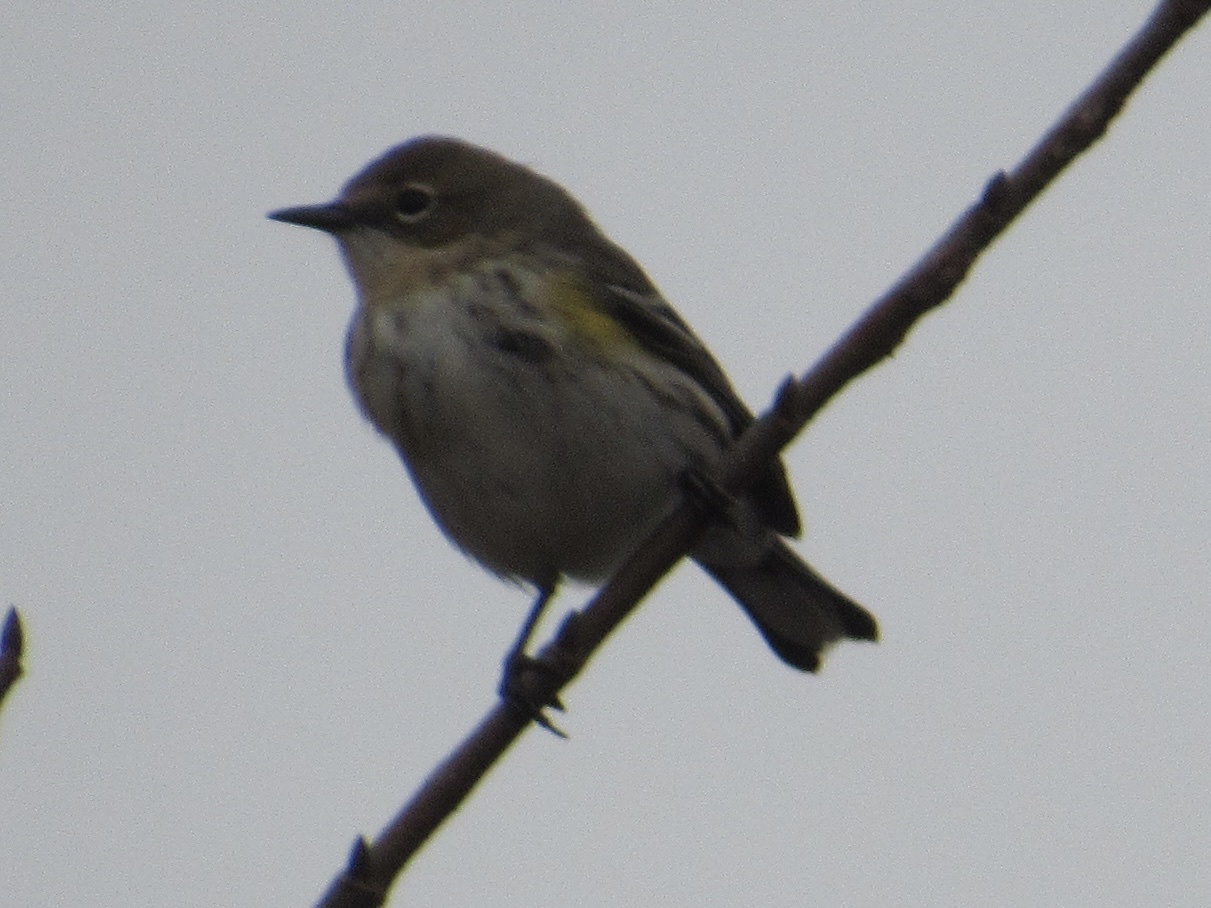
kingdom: Animalia
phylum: Chordata
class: Aves
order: Passeriformes
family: Parulidae
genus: Setophaga
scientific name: Setophaga coronata
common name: Myrtle warbler
